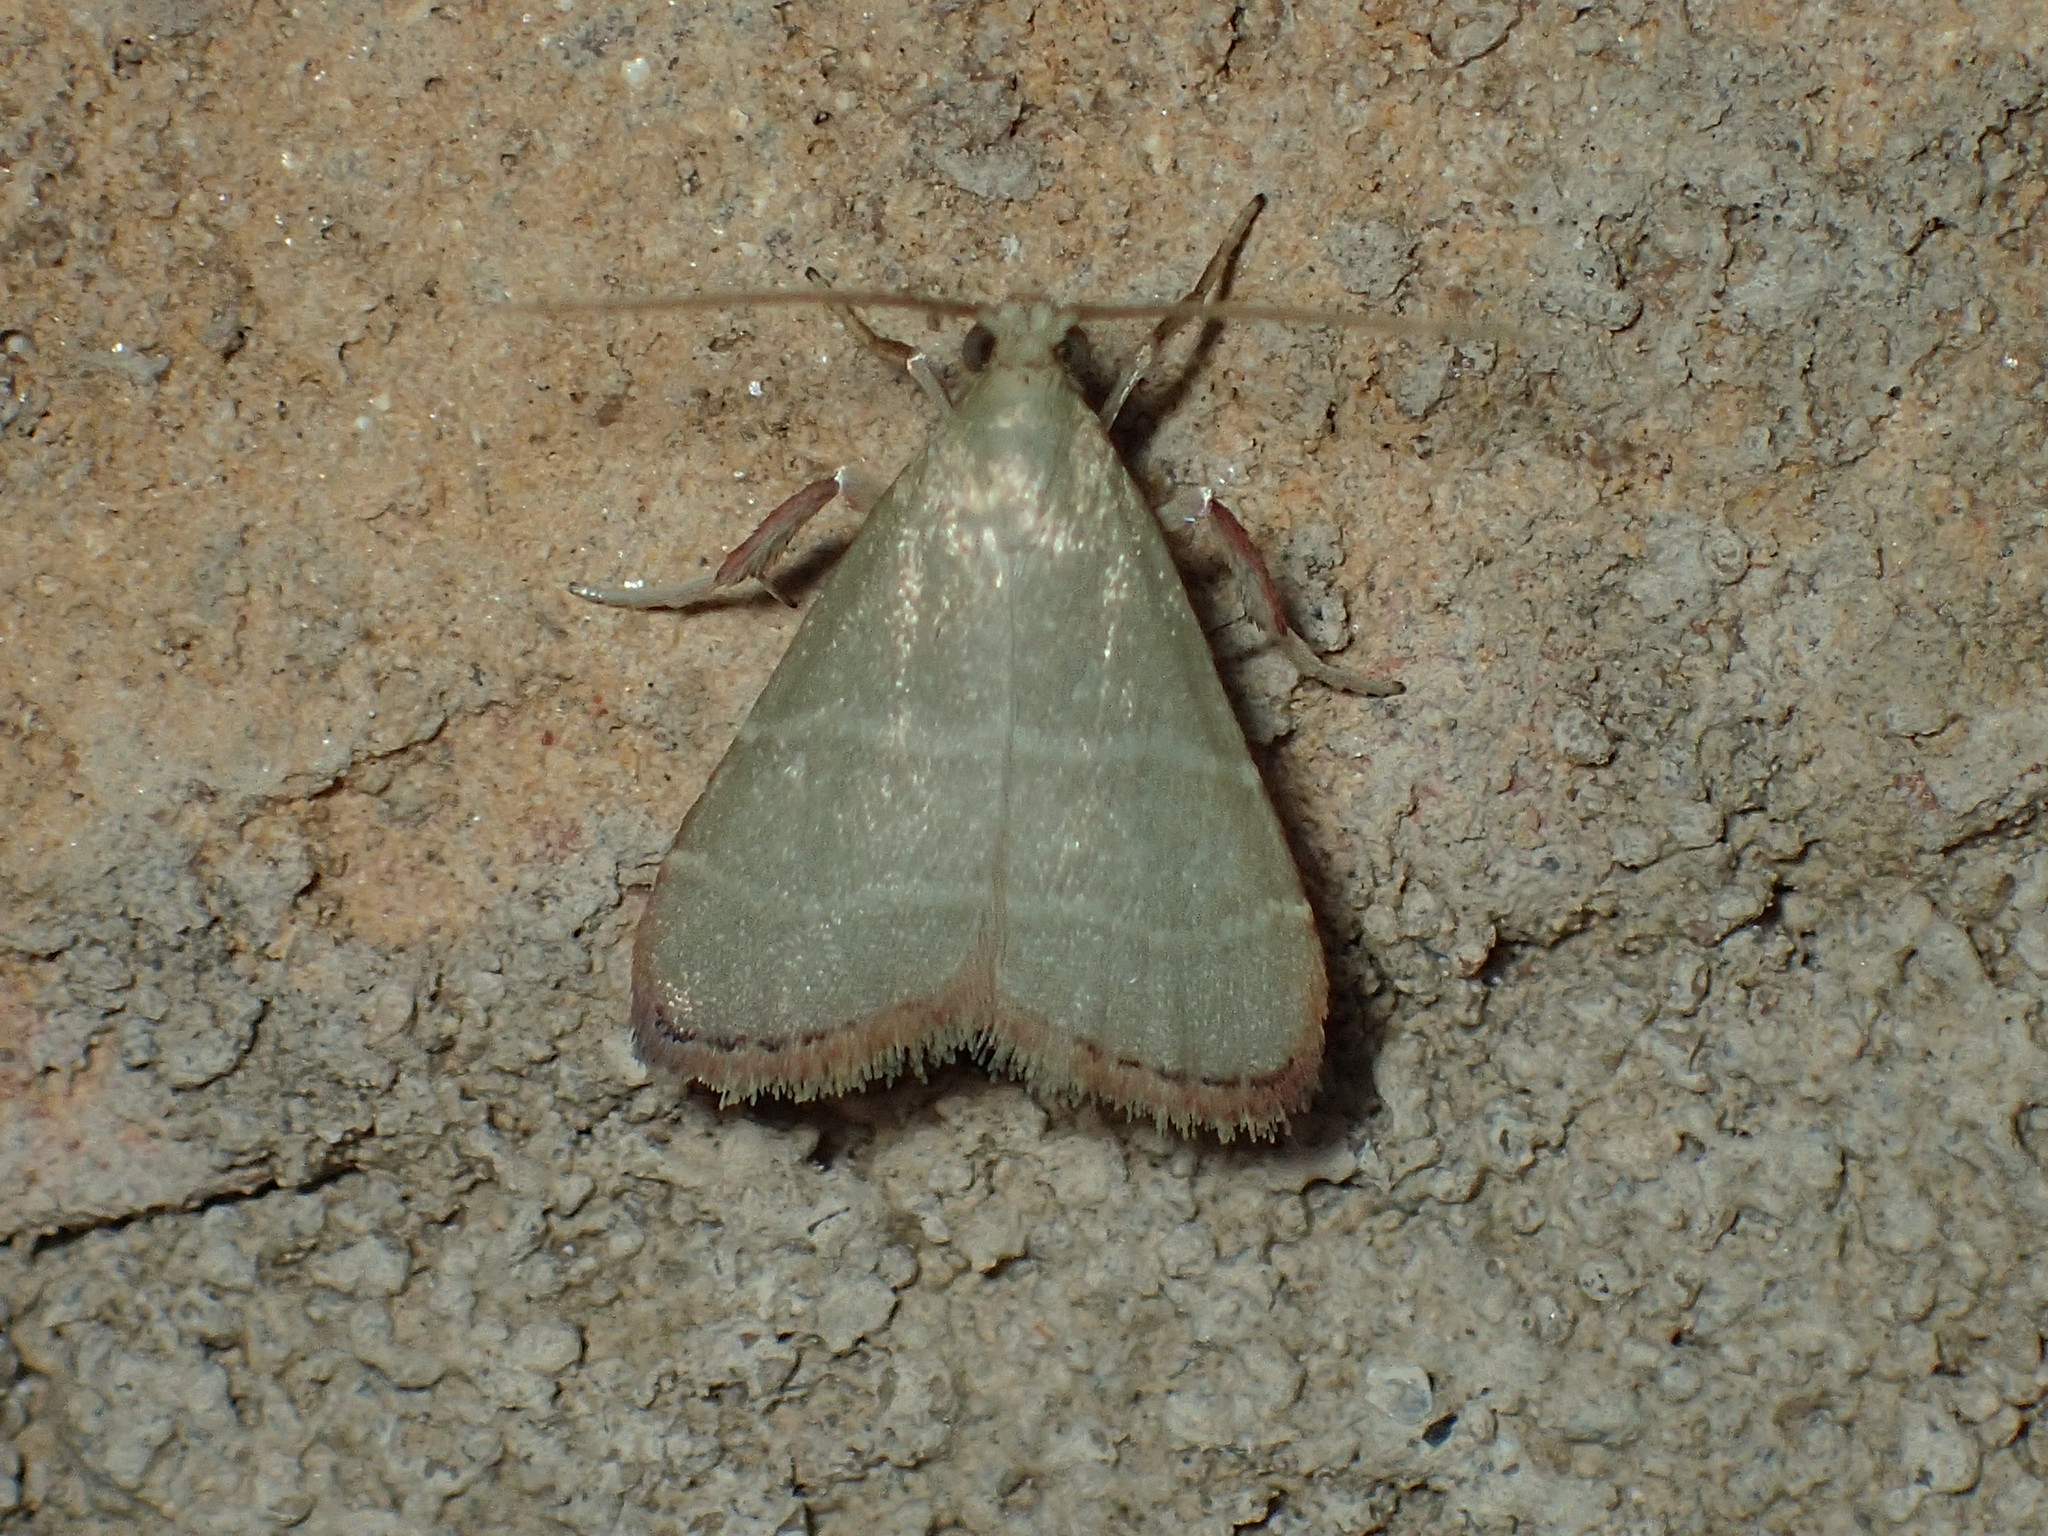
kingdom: Animalia
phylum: Arthropoda
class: Insecta
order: Lepidoptera
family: Pyralidae
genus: Arta
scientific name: Arta olivalis
